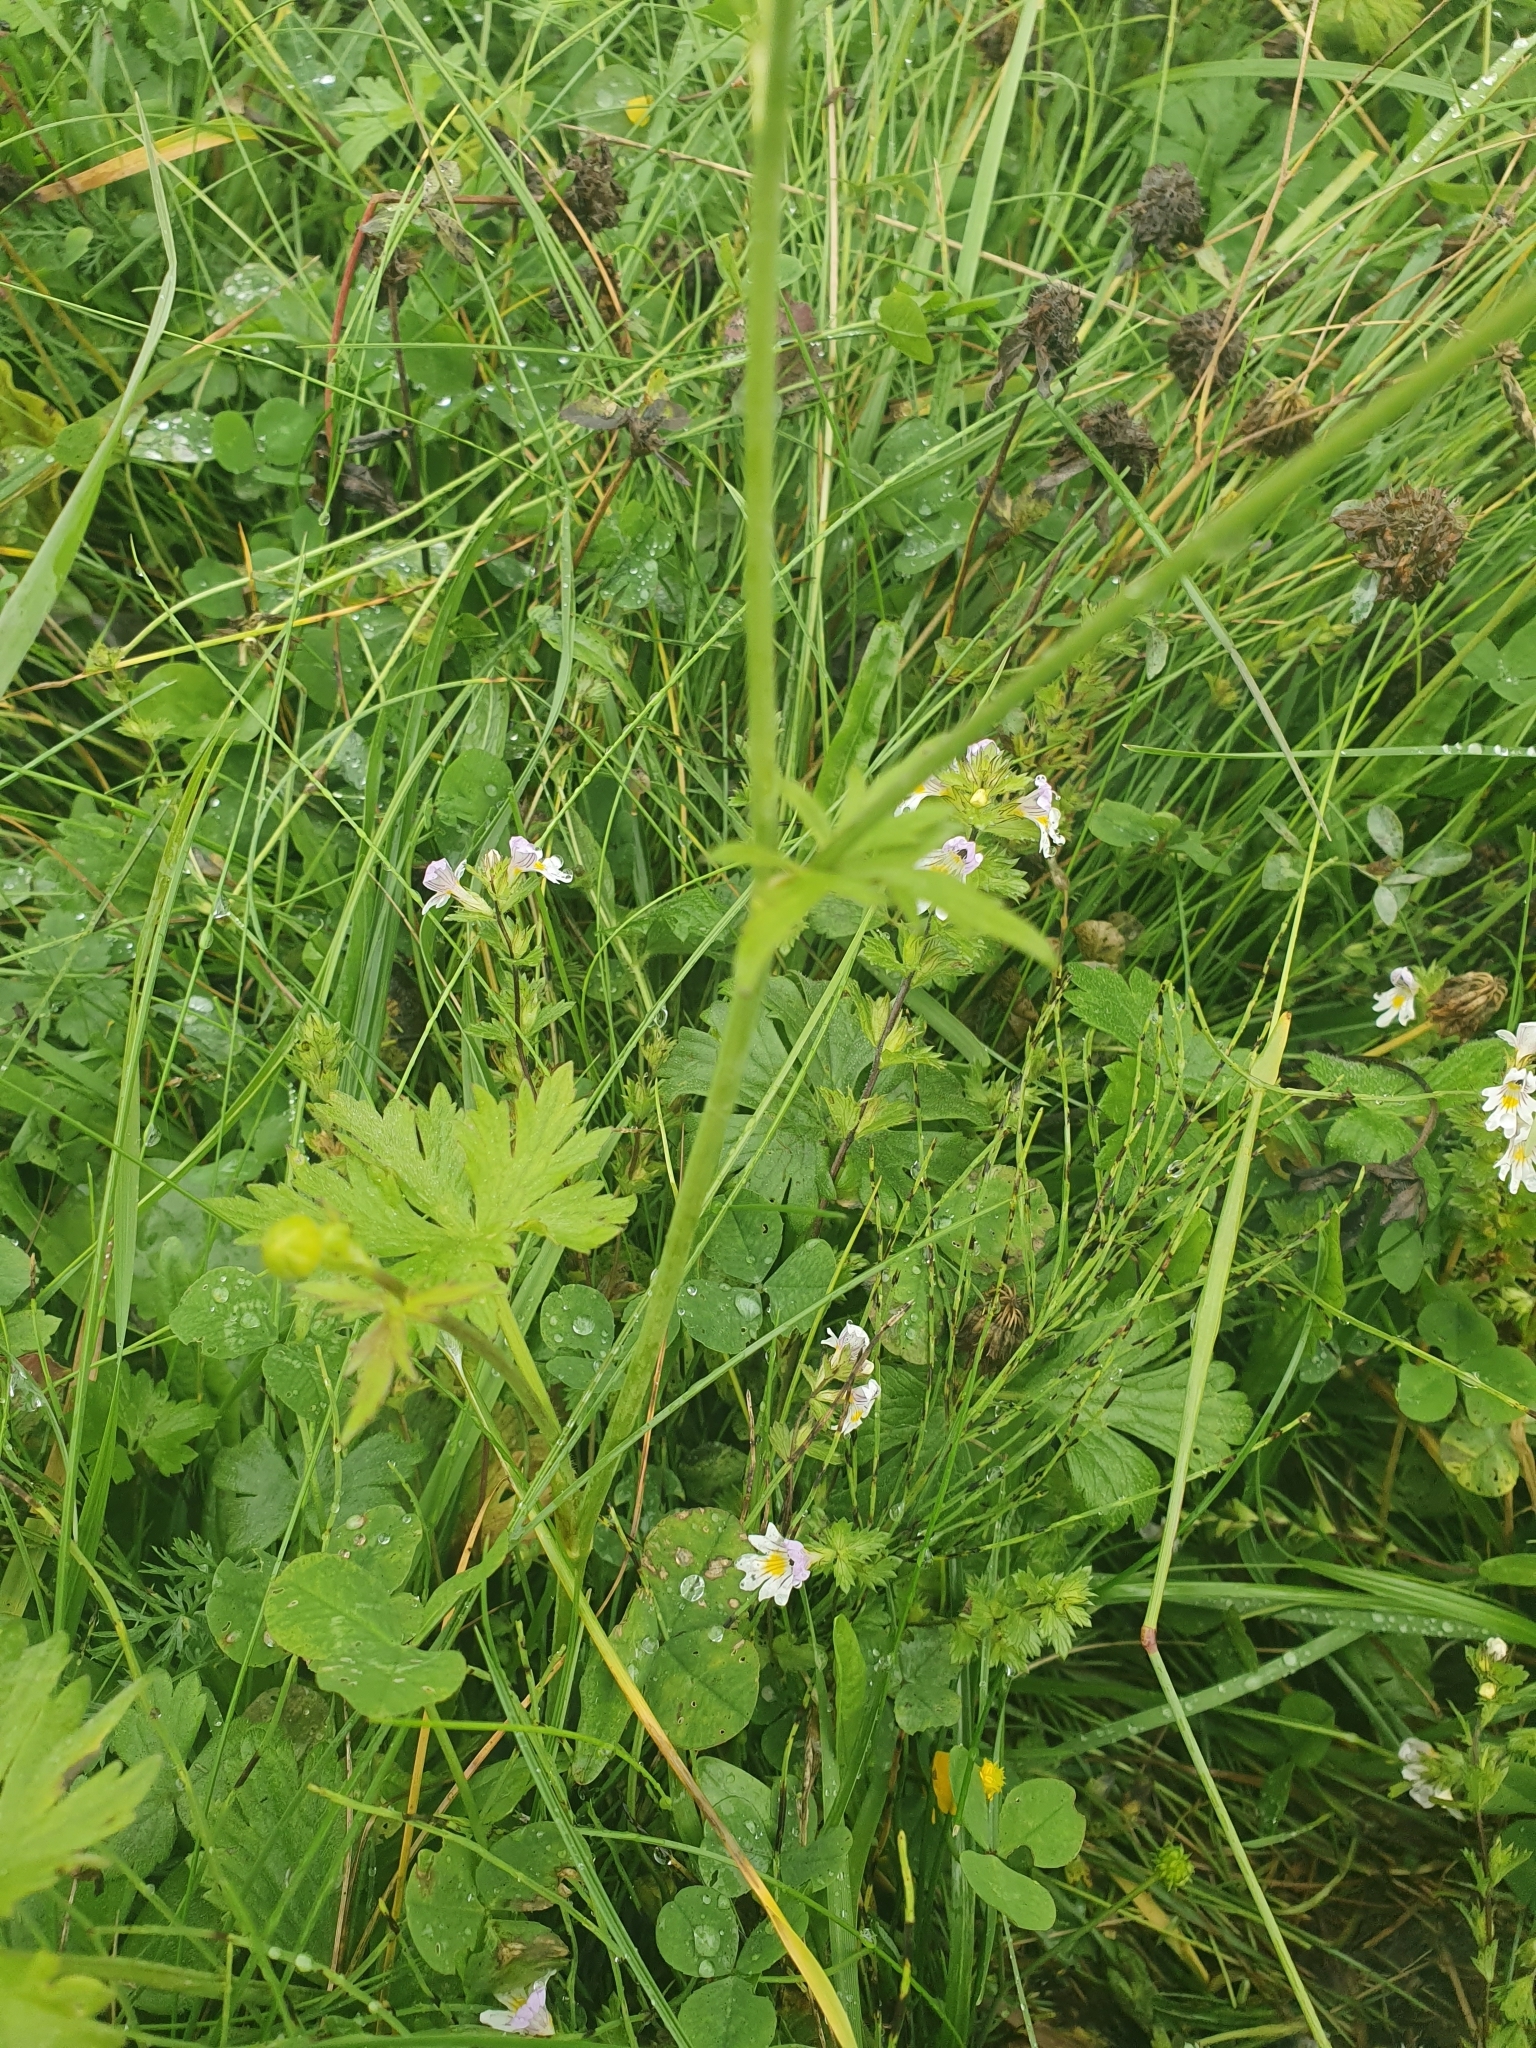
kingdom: Plantae
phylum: Tracheophyta
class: Magnoliopsida
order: Ranunculales
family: Ranunculaceae
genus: Ranunculus
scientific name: Ranunculus acris
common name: Meadow buttercup
